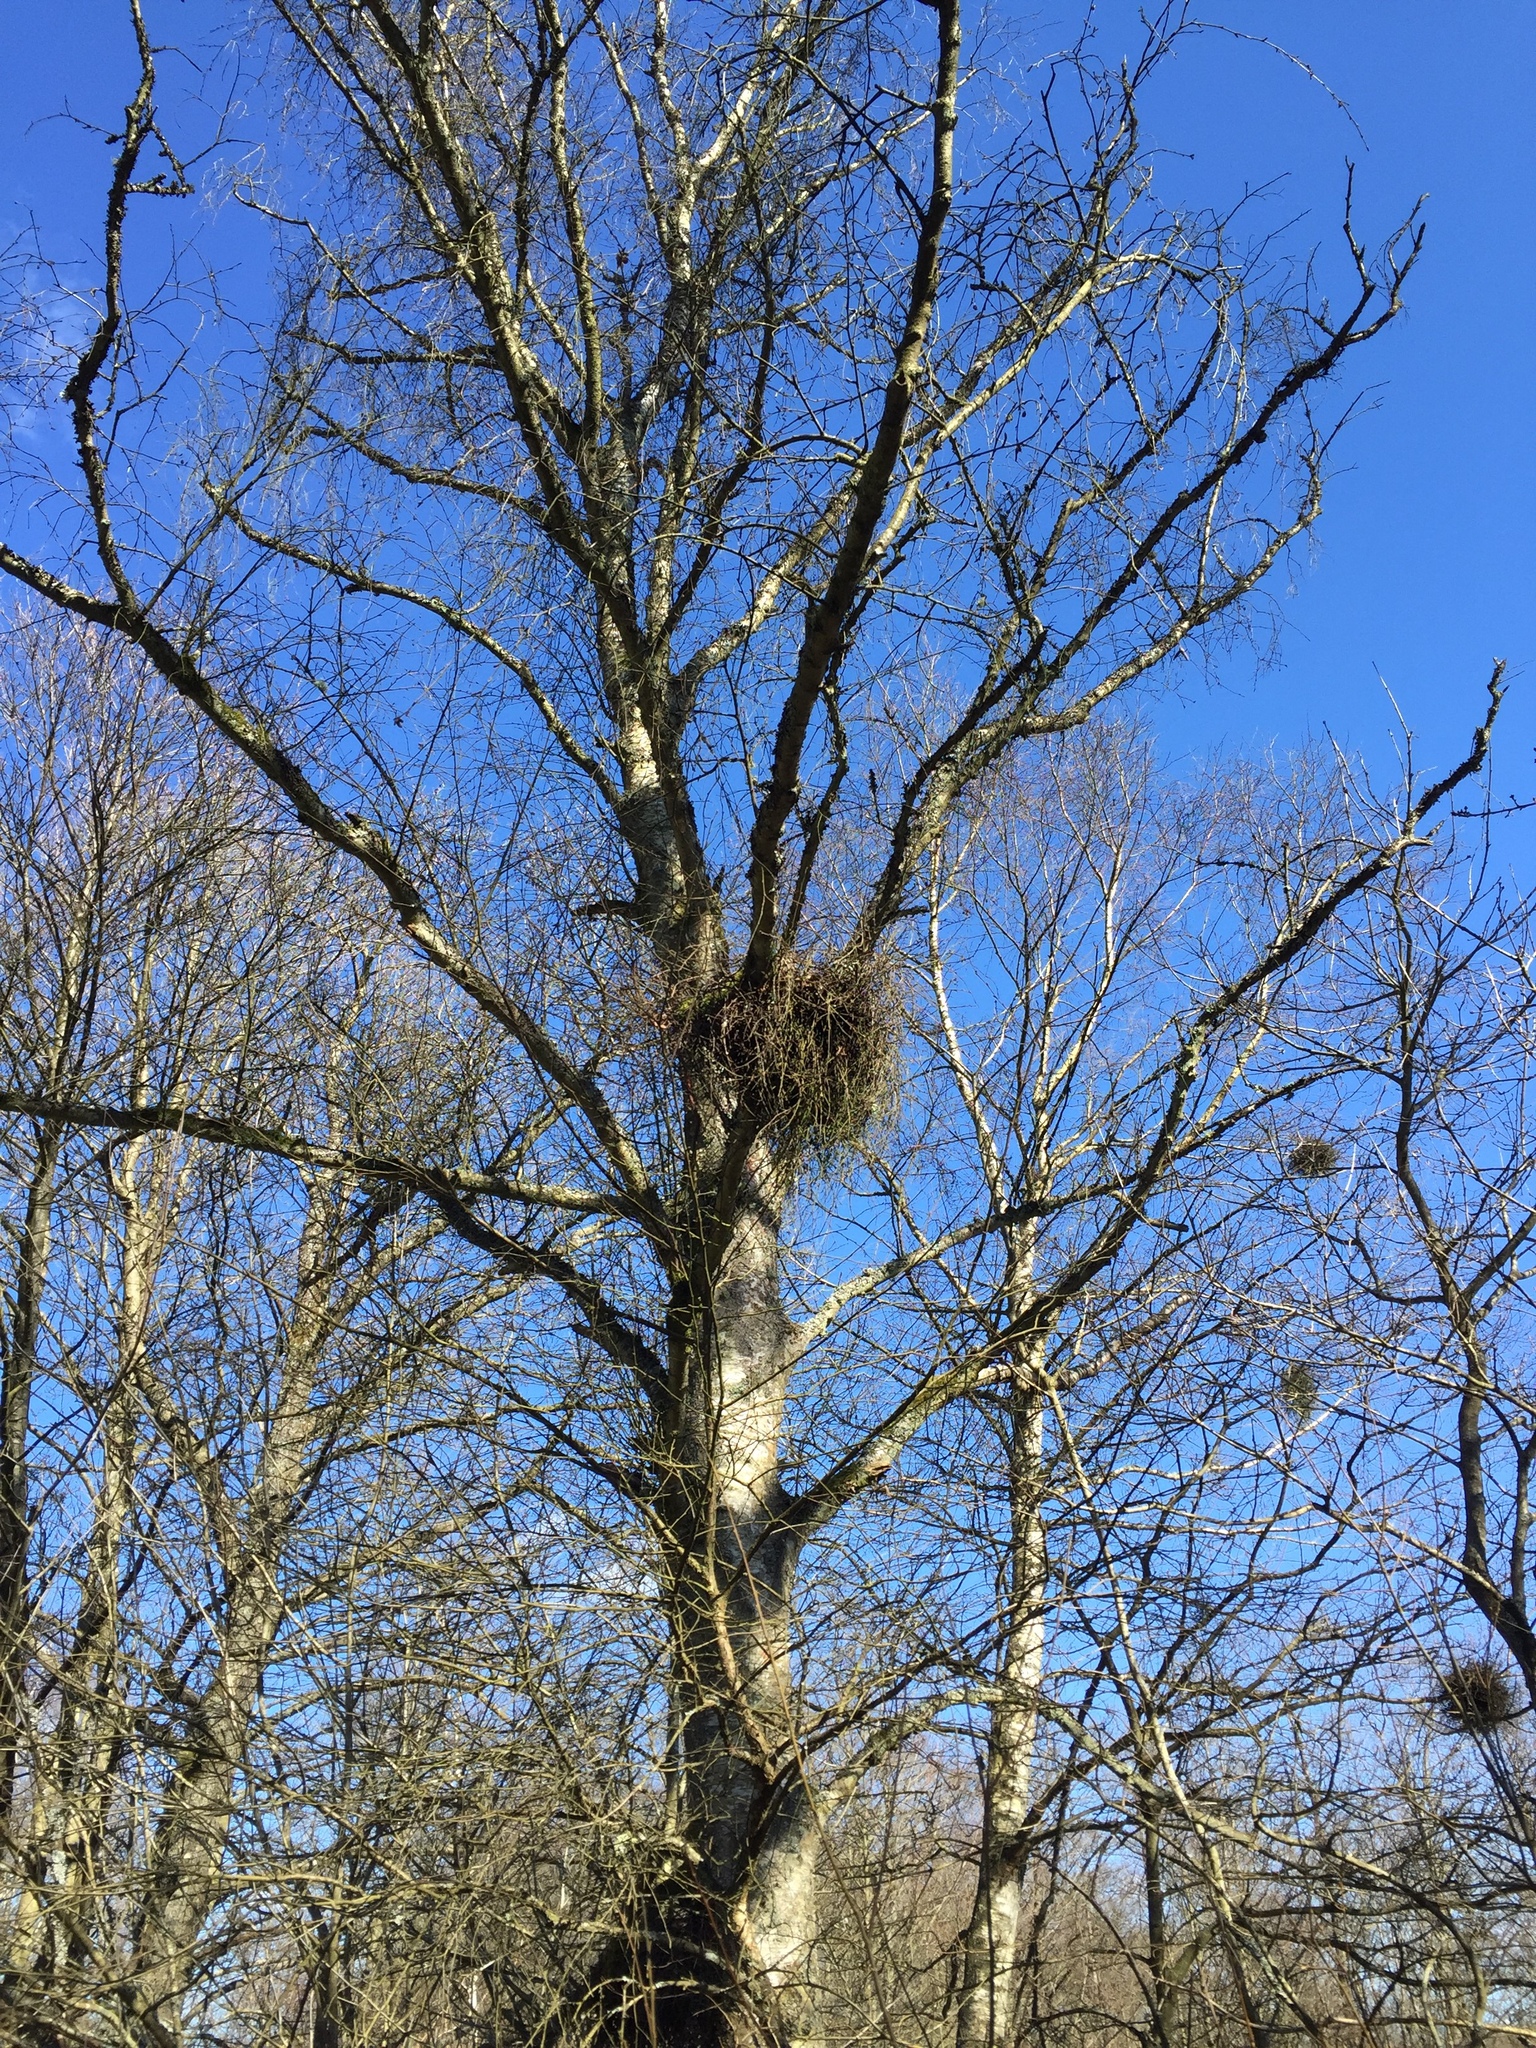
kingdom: Fungi
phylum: Ascomycota
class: Taphrinomycetes
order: Taphrinales
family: Taphrinaceae
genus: Taphrina
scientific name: Taphrina betulina
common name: Birch besom
